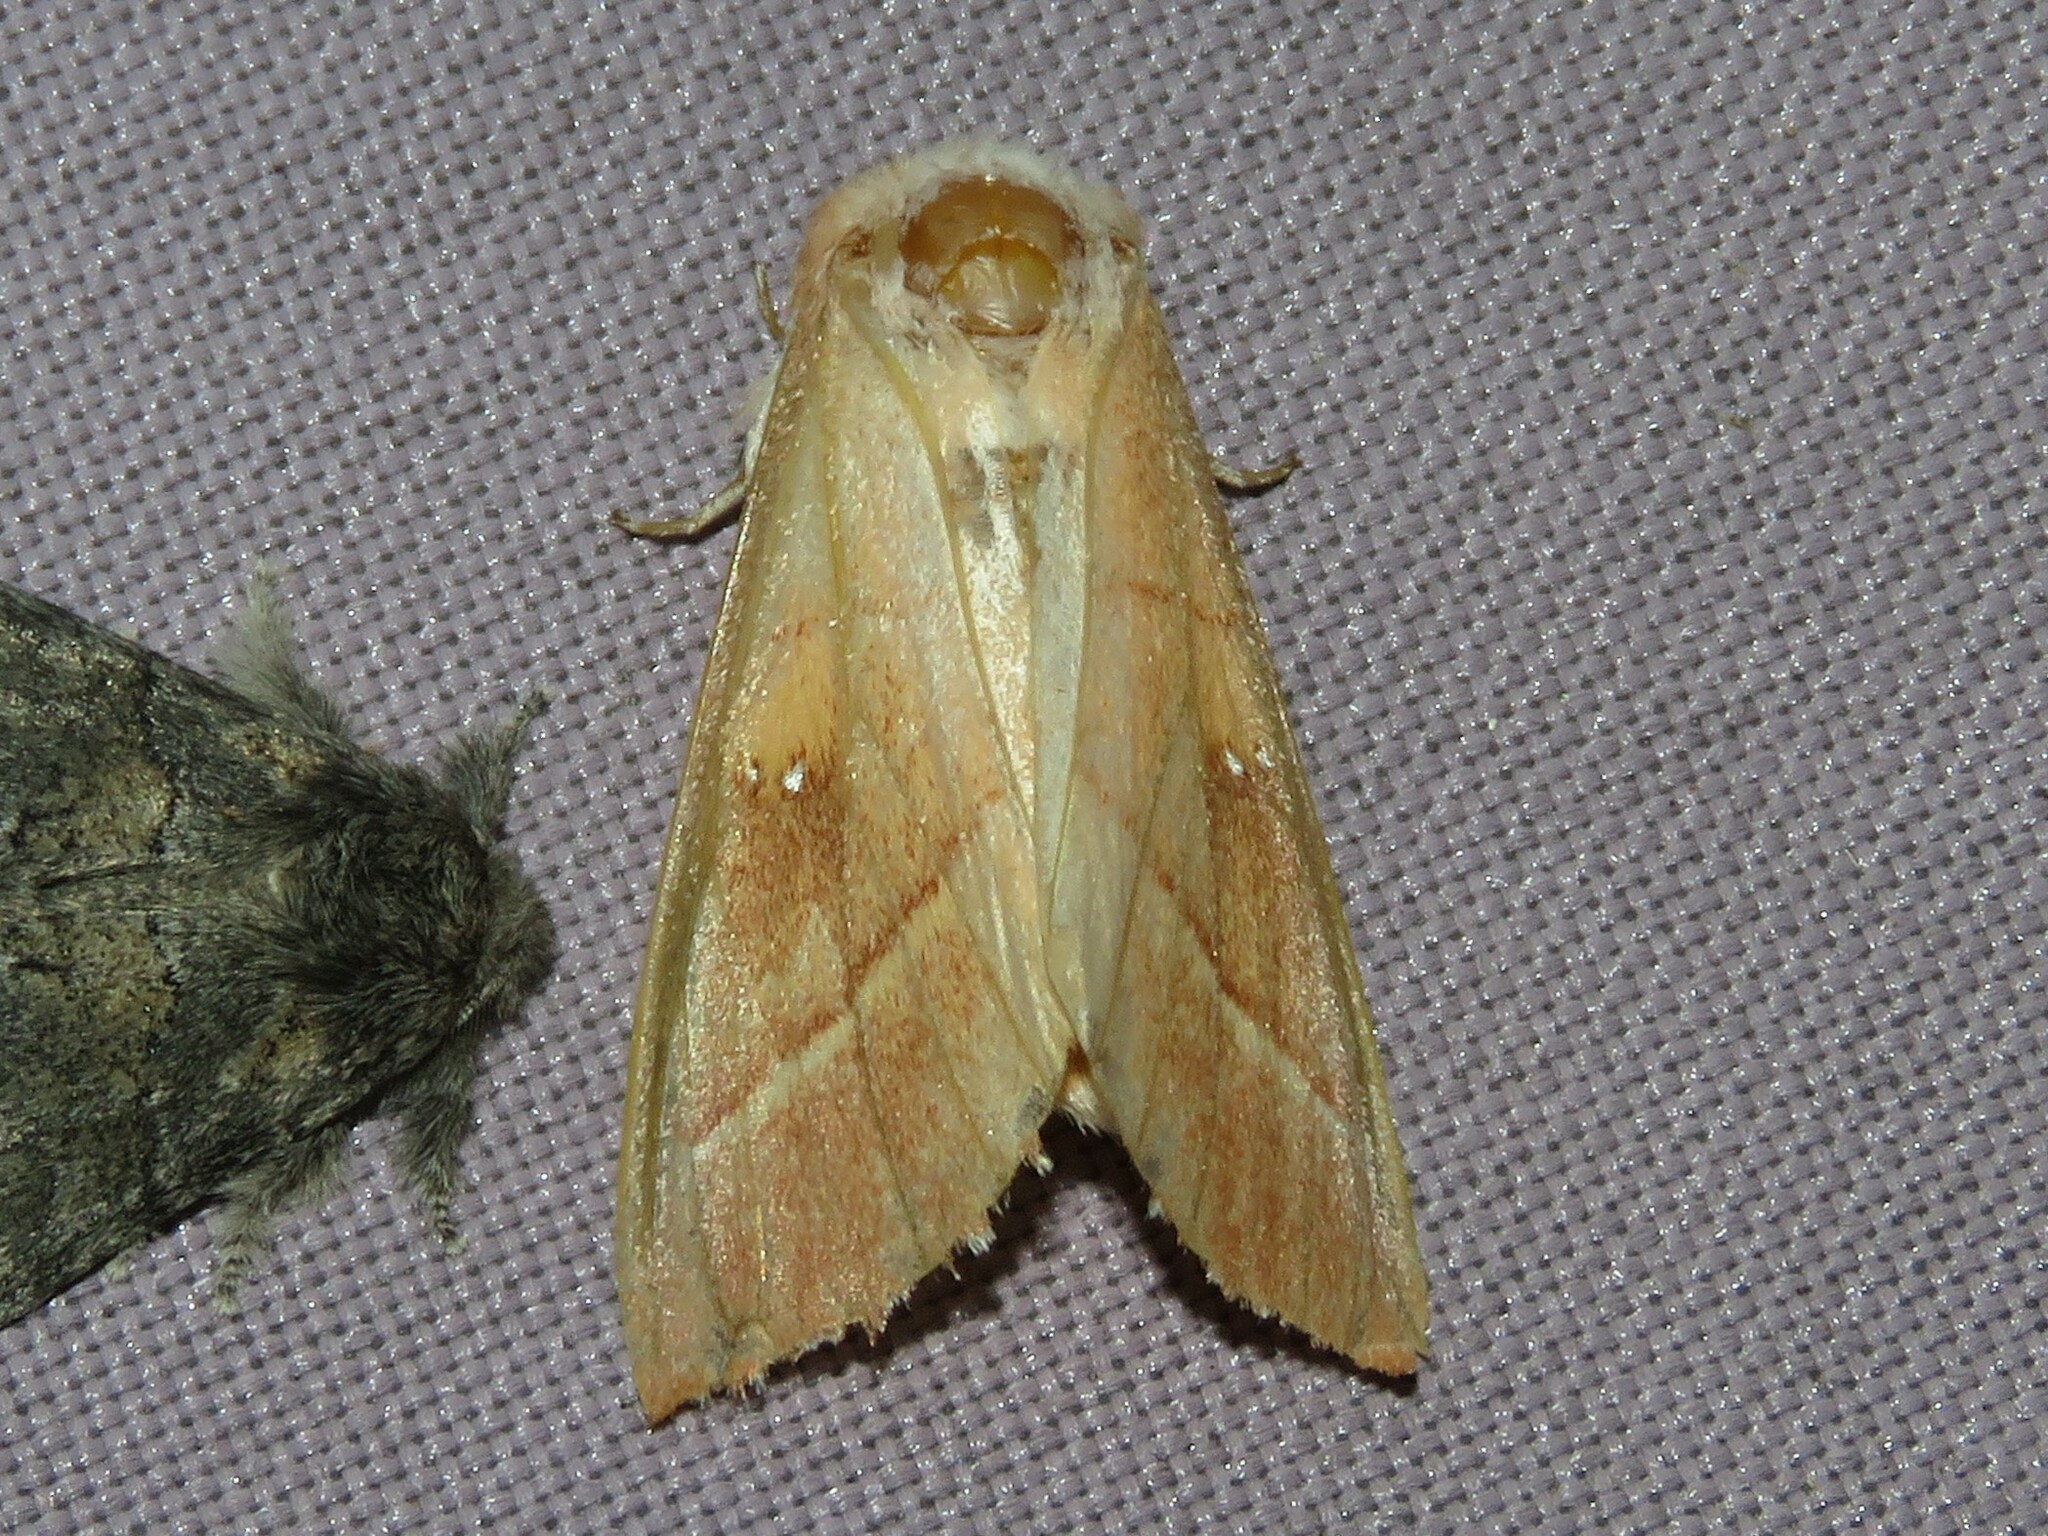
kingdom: Animalia
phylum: Arthropoda
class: Insecta
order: Lepidoptera
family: Notodontidae
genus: Nadata
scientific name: Nadata gibbosa
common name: White-dotted prominent
